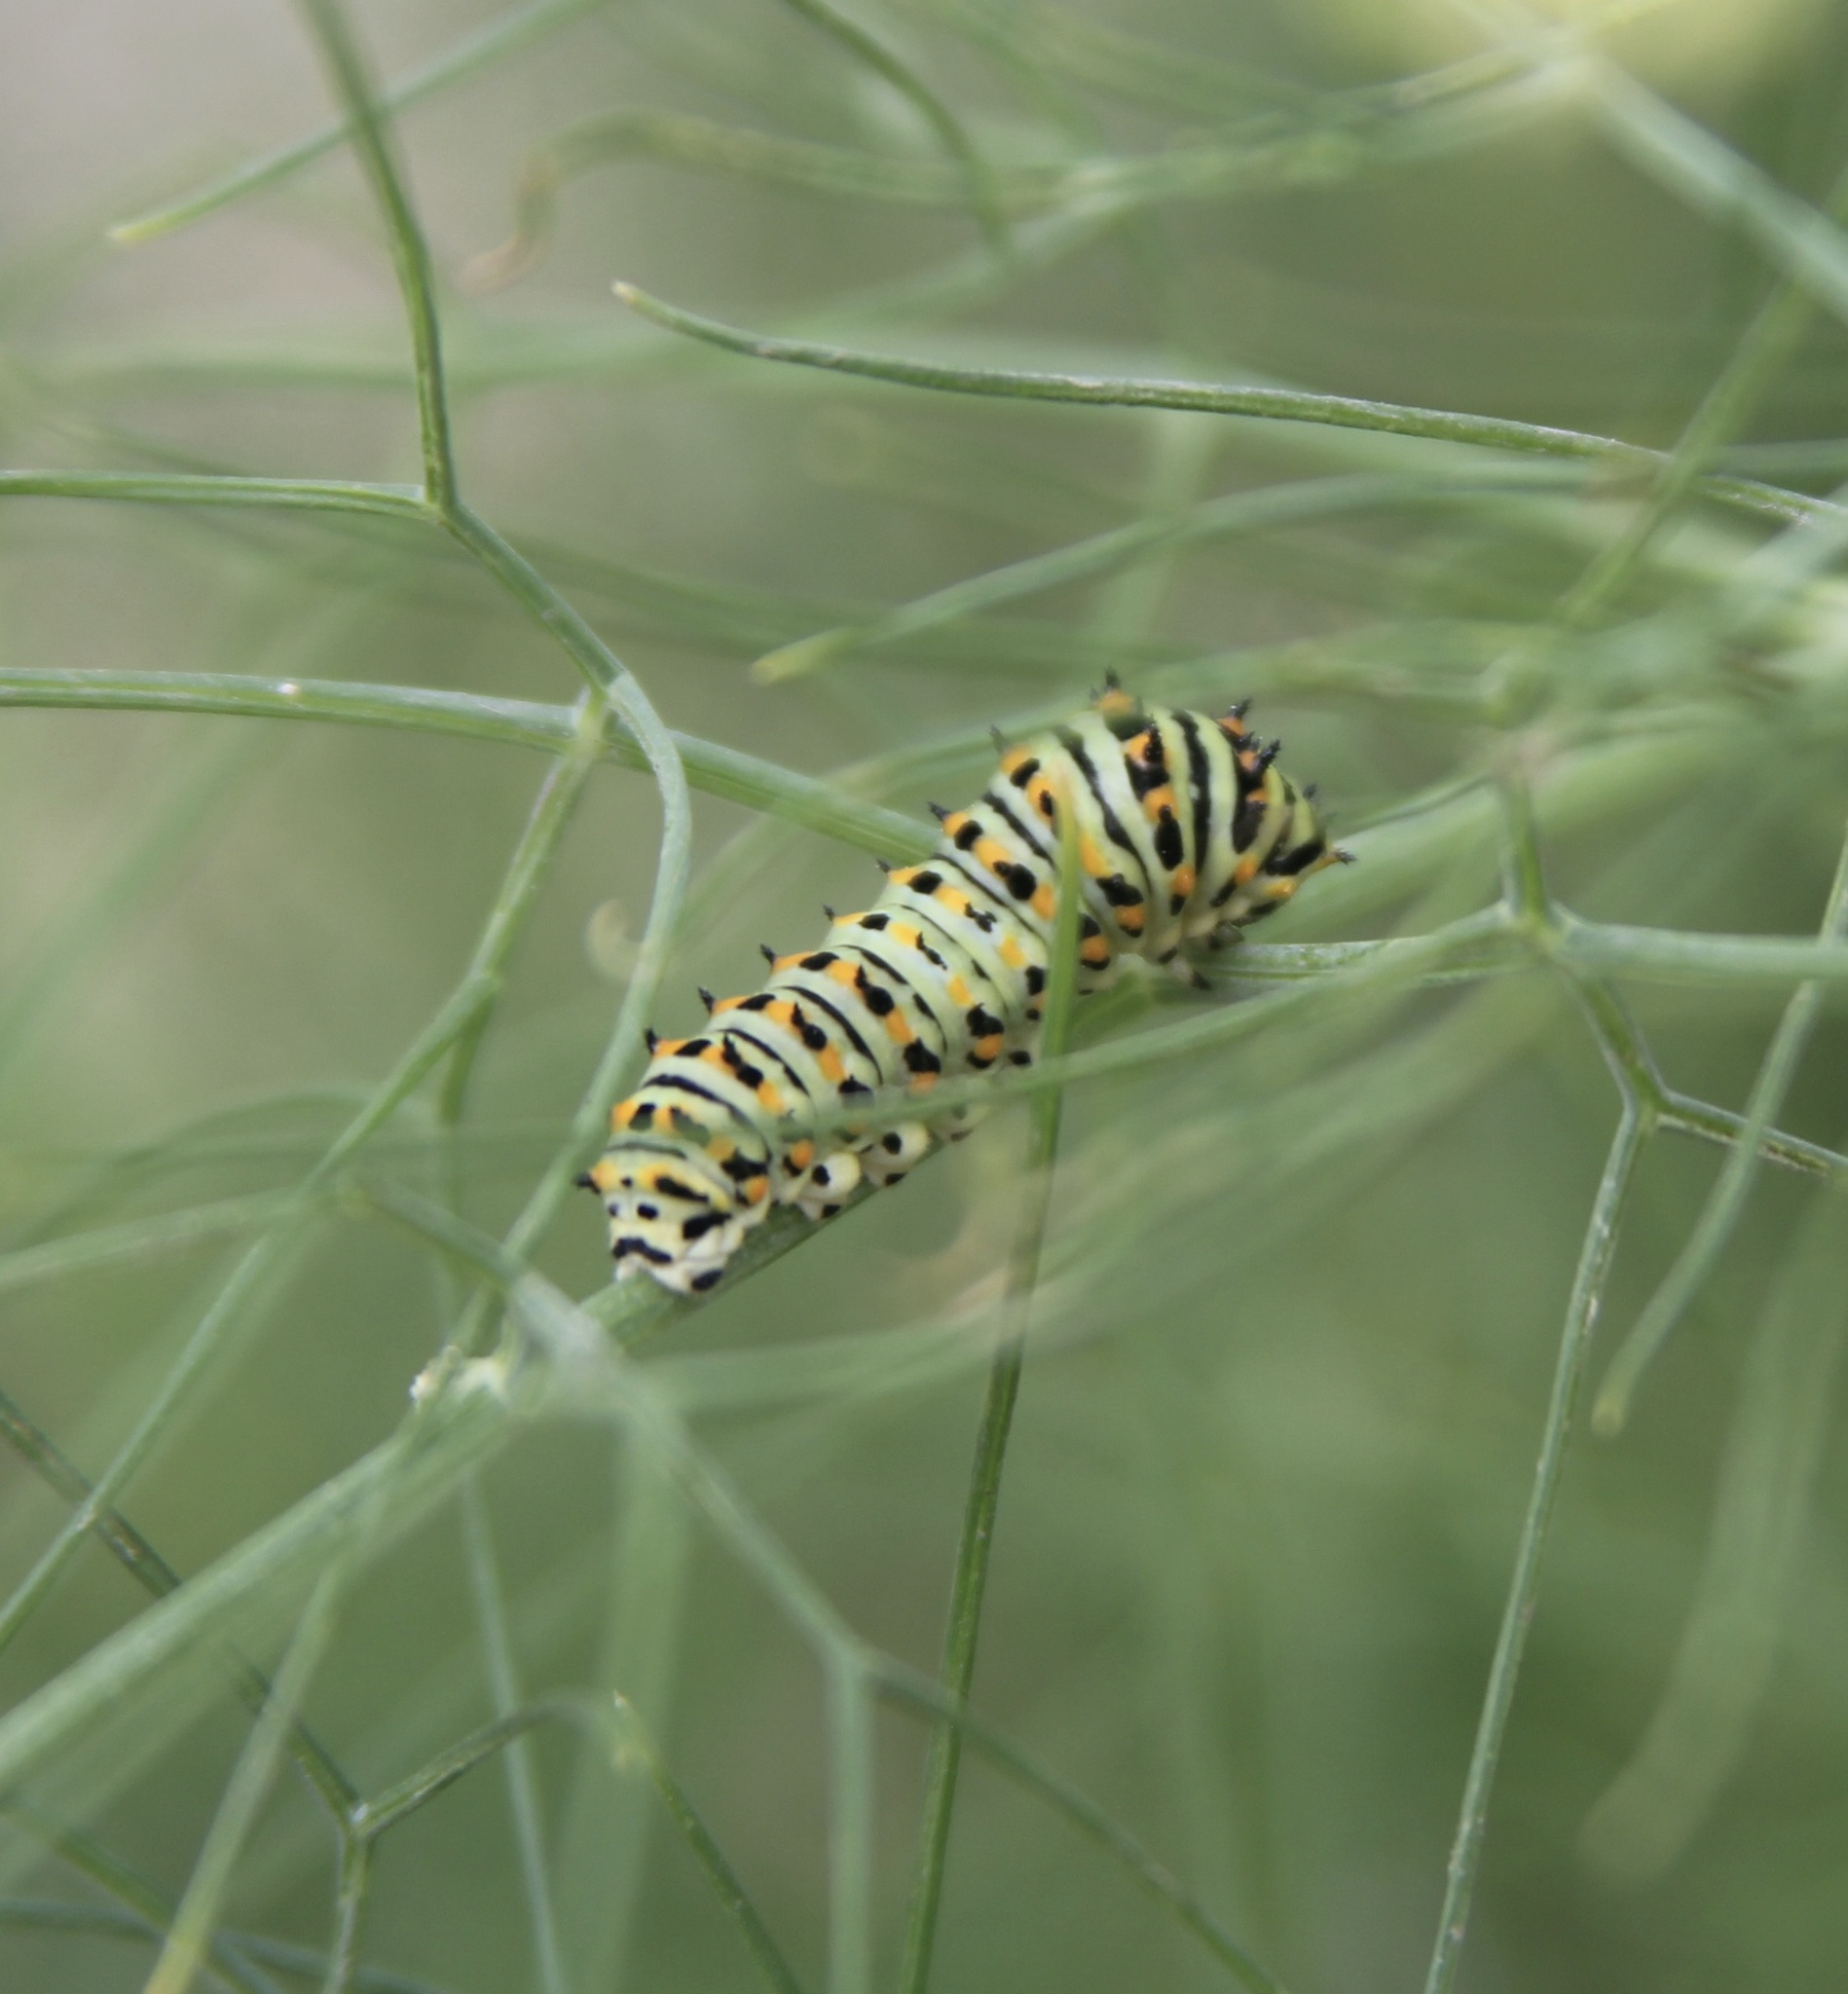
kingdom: Animalia
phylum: Arthropoda
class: Insecta
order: Lepidoptera
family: Papilionidae
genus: Papilio
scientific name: Papilio zelicaon
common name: Anise swallowtail
